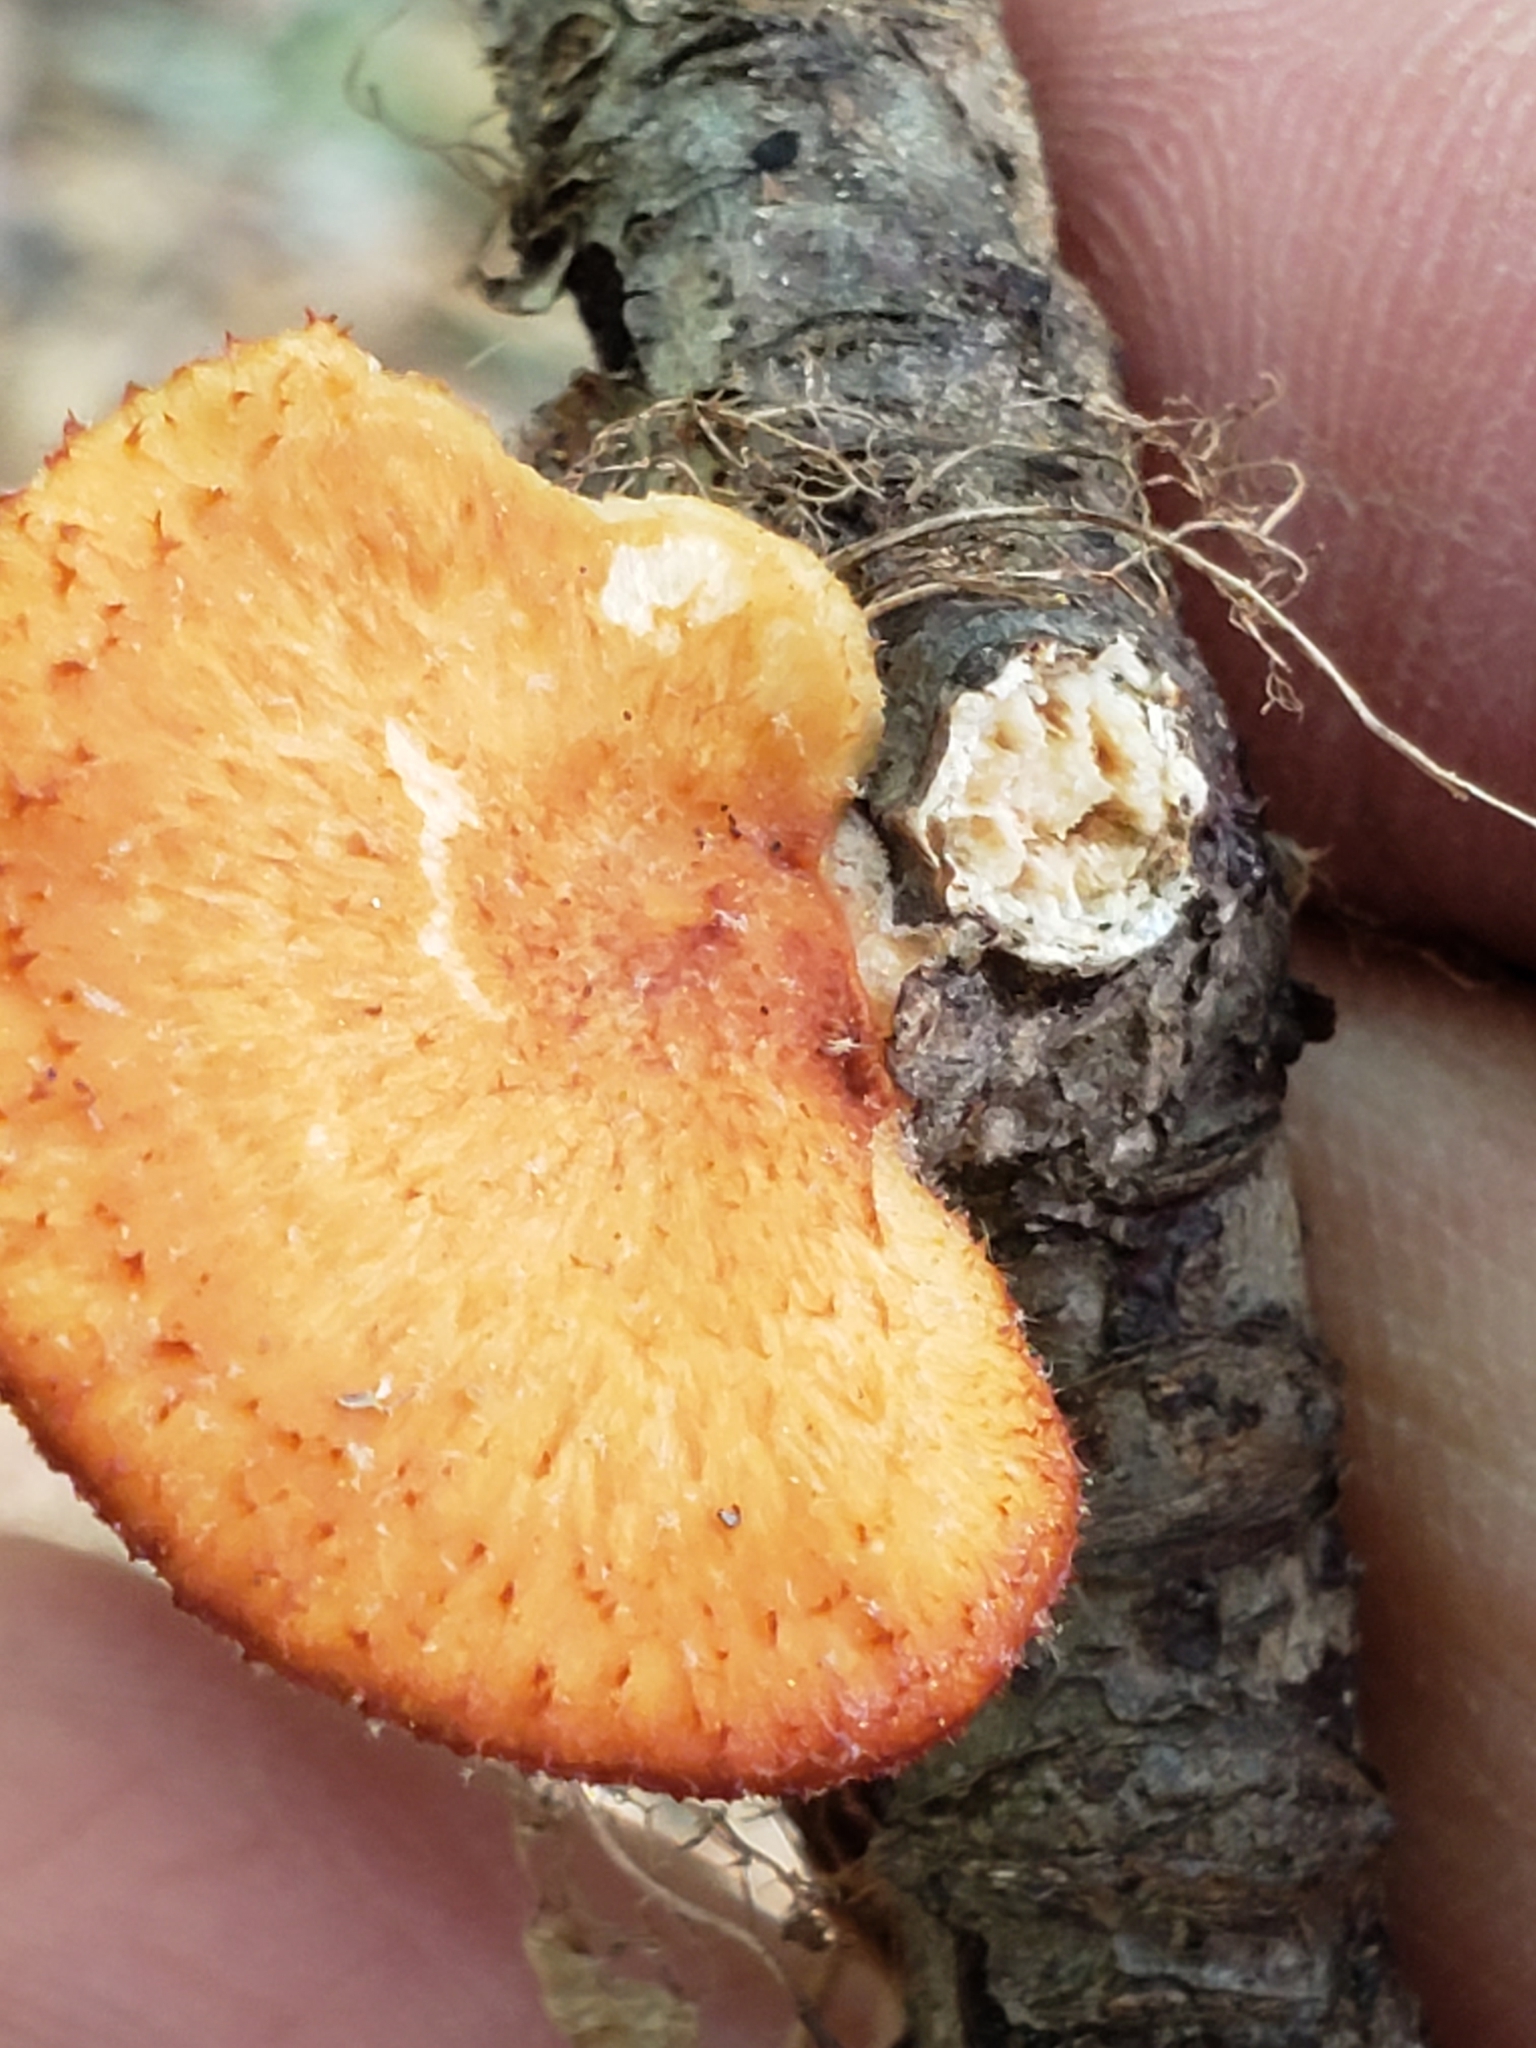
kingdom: Fungi
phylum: Basidiomycota
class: Agaricomycetes
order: Polyporales
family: Polyporaceae
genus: Neofavolus
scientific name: Neofavolus alveolaris
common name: Hexagonal-pored polypore
